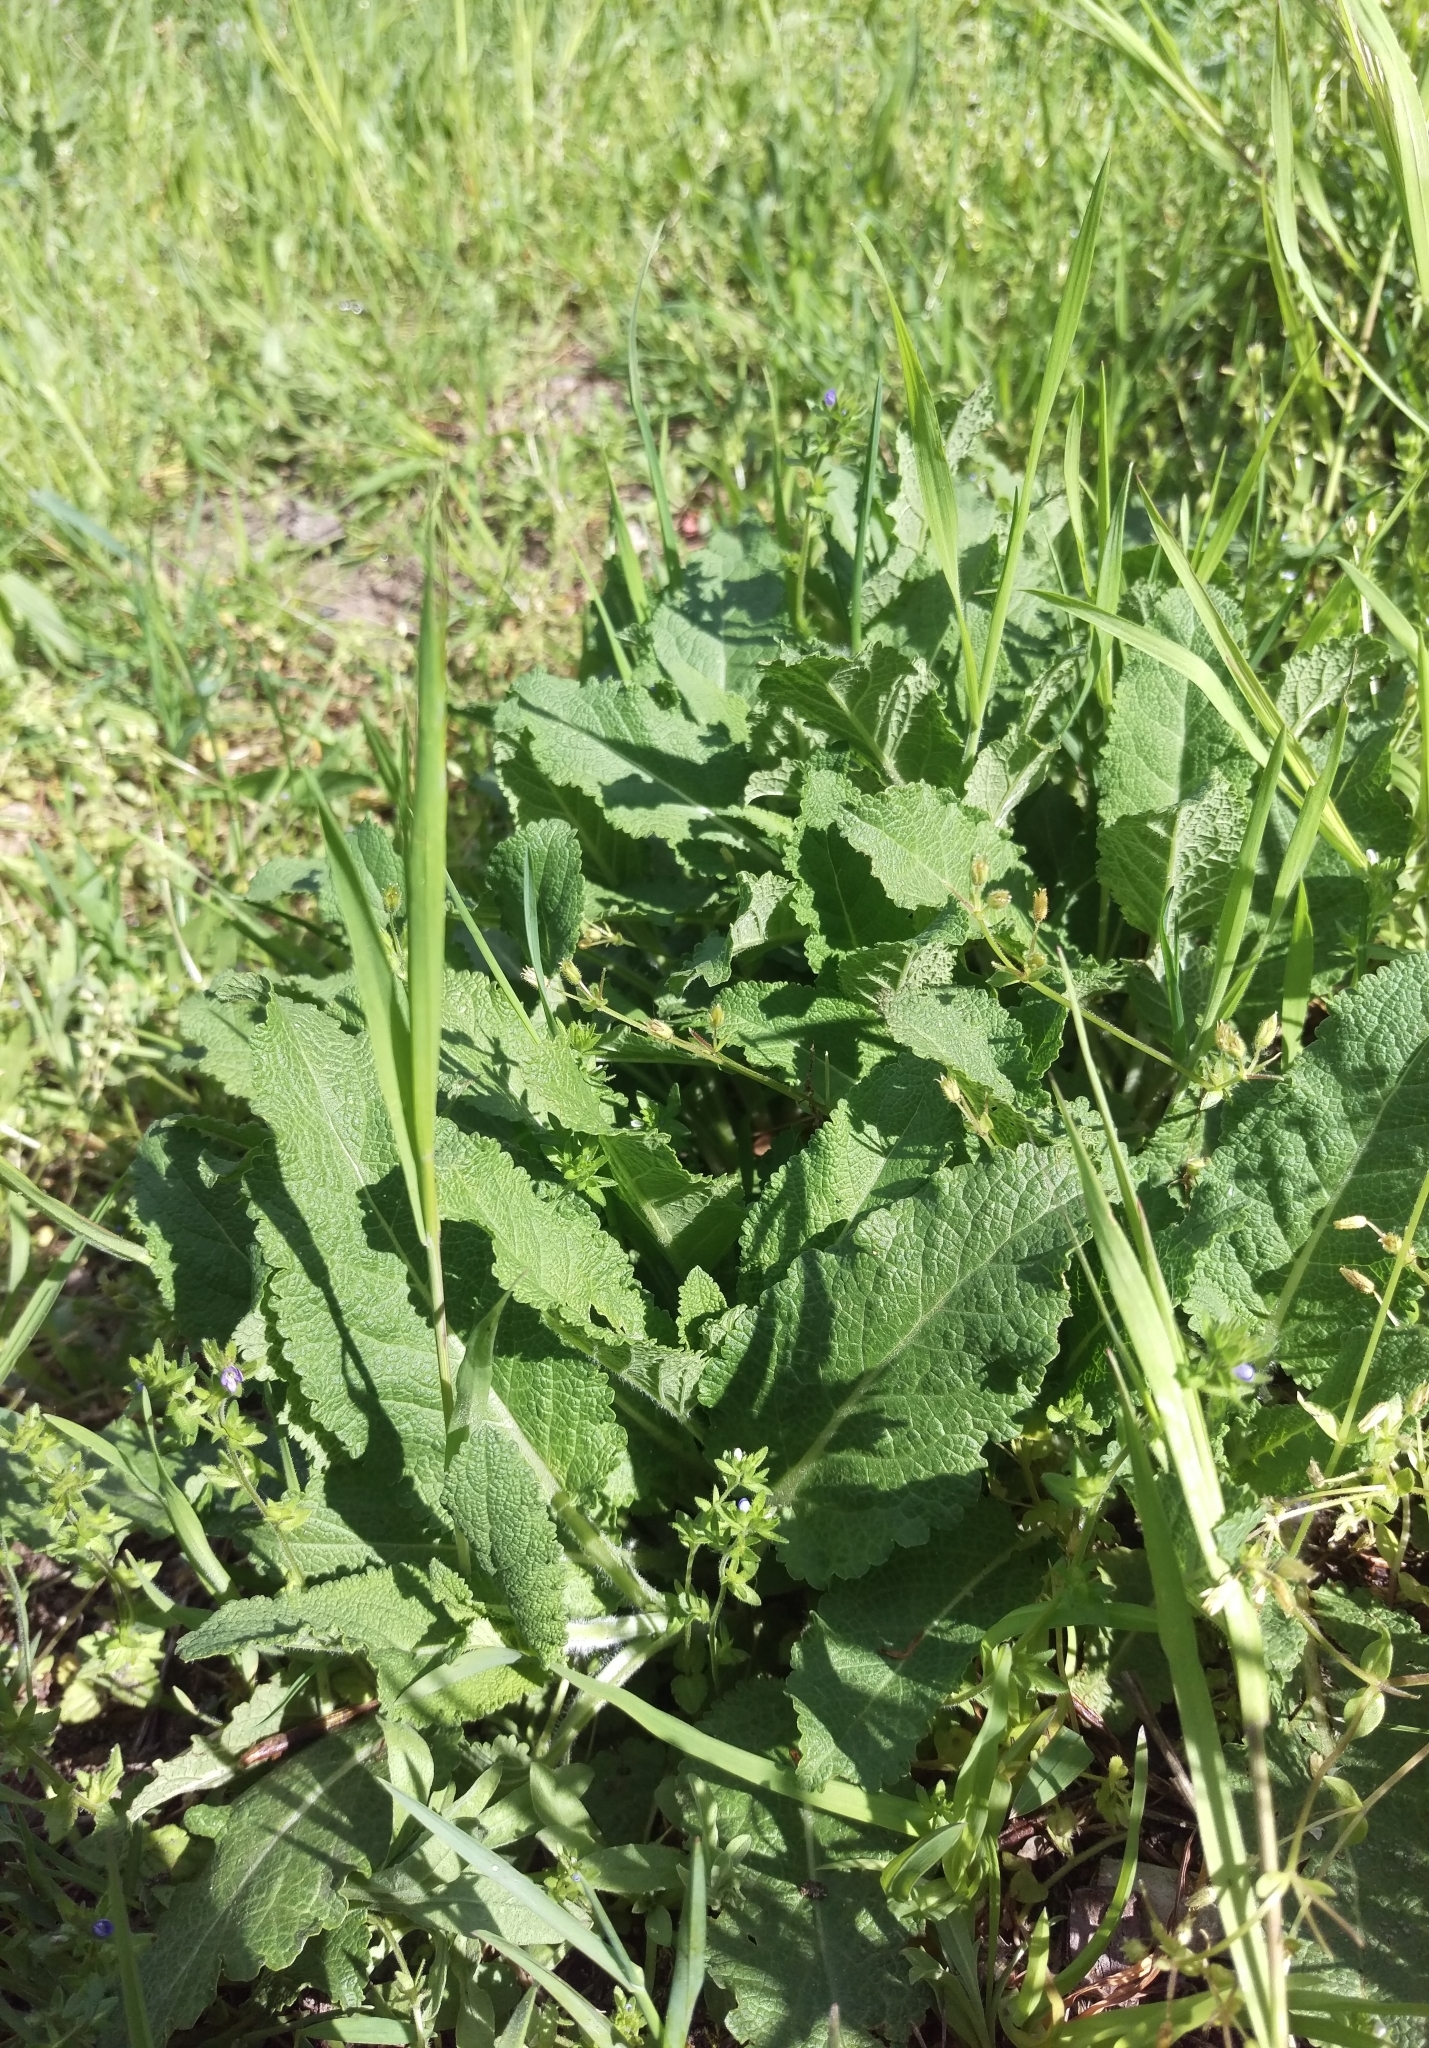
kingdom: Plantae
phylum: Tracheophyta
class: Magnoliopsida
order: Lamiales
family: Lamiaceae
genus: Salvia
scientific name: Salvia pratensis
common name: Meadow sage
